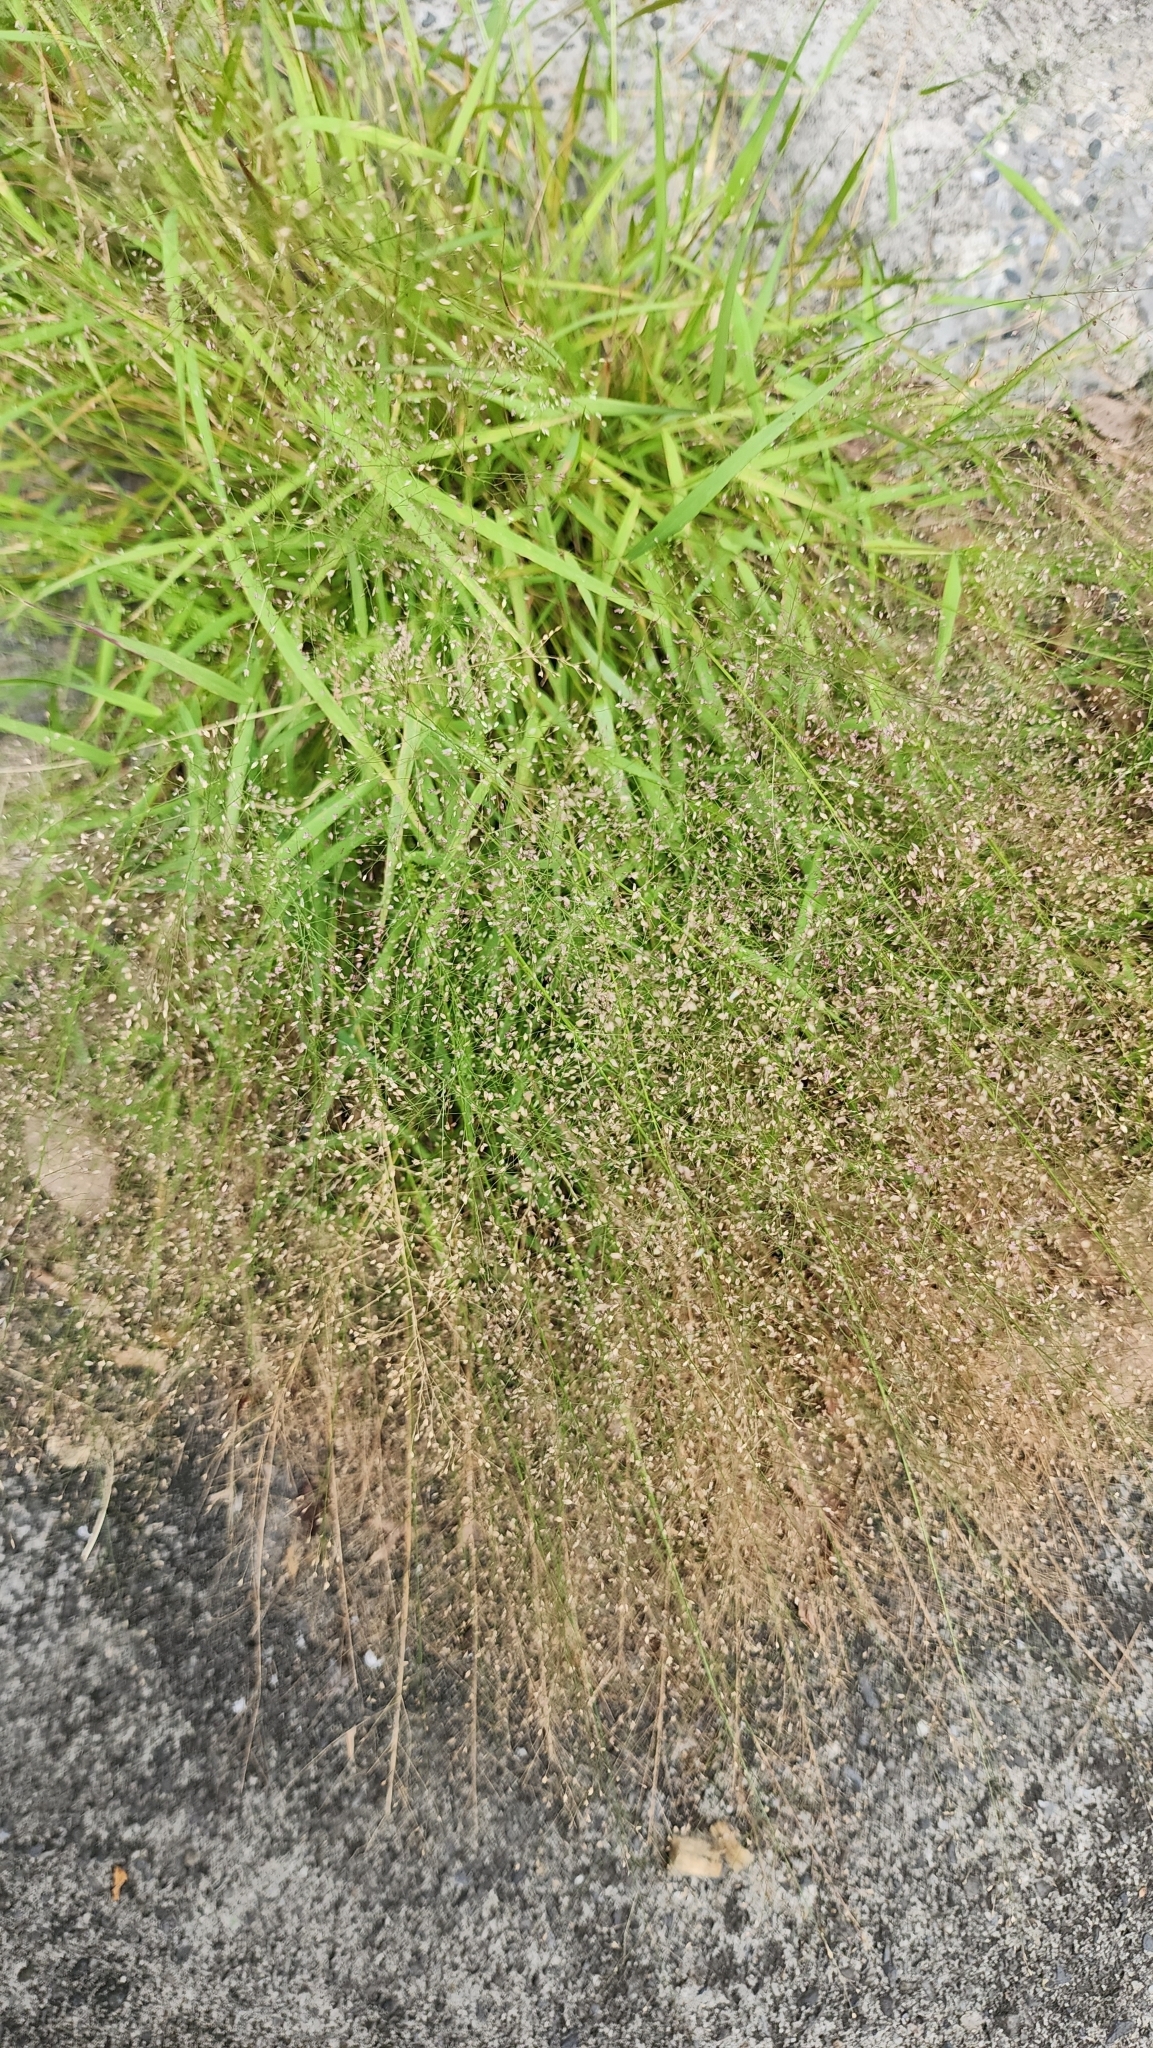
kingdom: Plantae
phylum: Tracheophyta
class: Liliopsida
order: Poales
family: Poaceae
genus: Eragrostis
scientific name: Eragrostis tenella
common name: Japanese lovegrass
